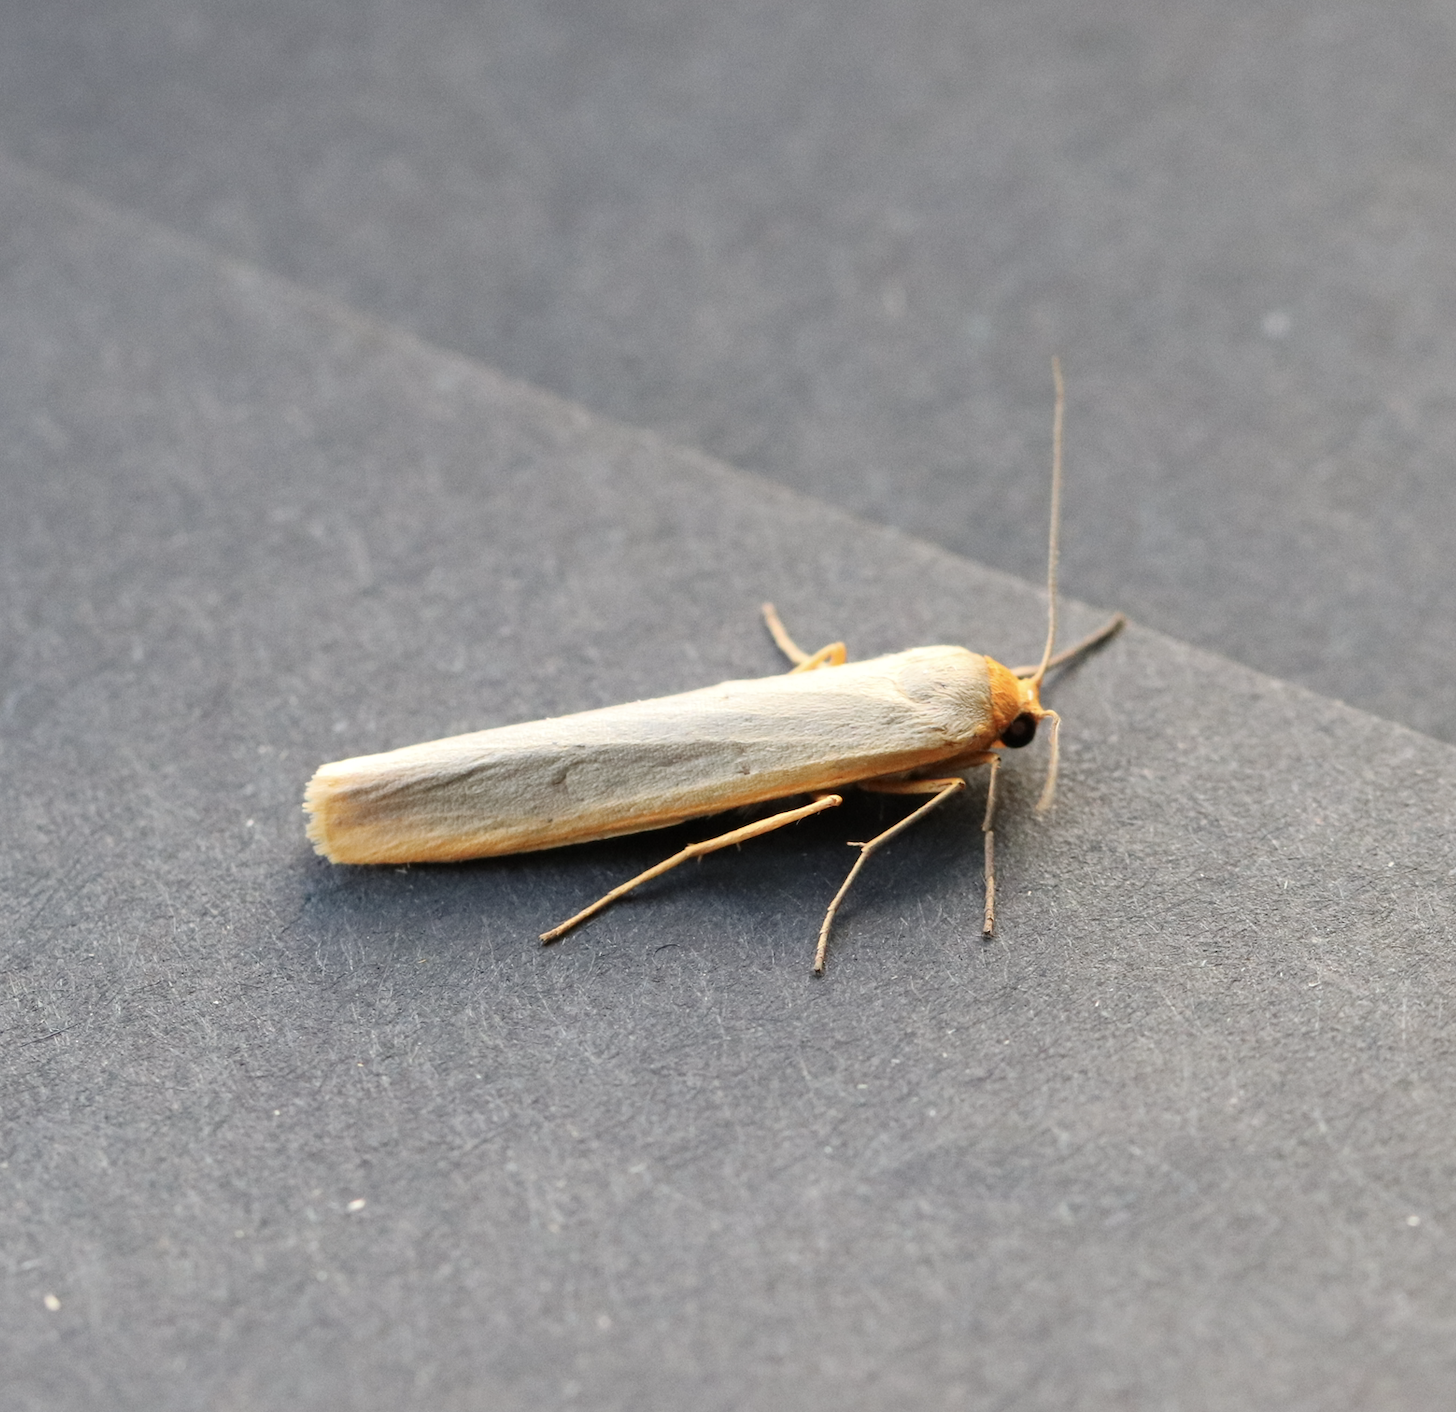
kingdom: Animalia
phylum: Arthropoda
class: Insecta
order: Lepidoptera
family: Erebidae
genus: Manulea
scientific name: Manulea complana
